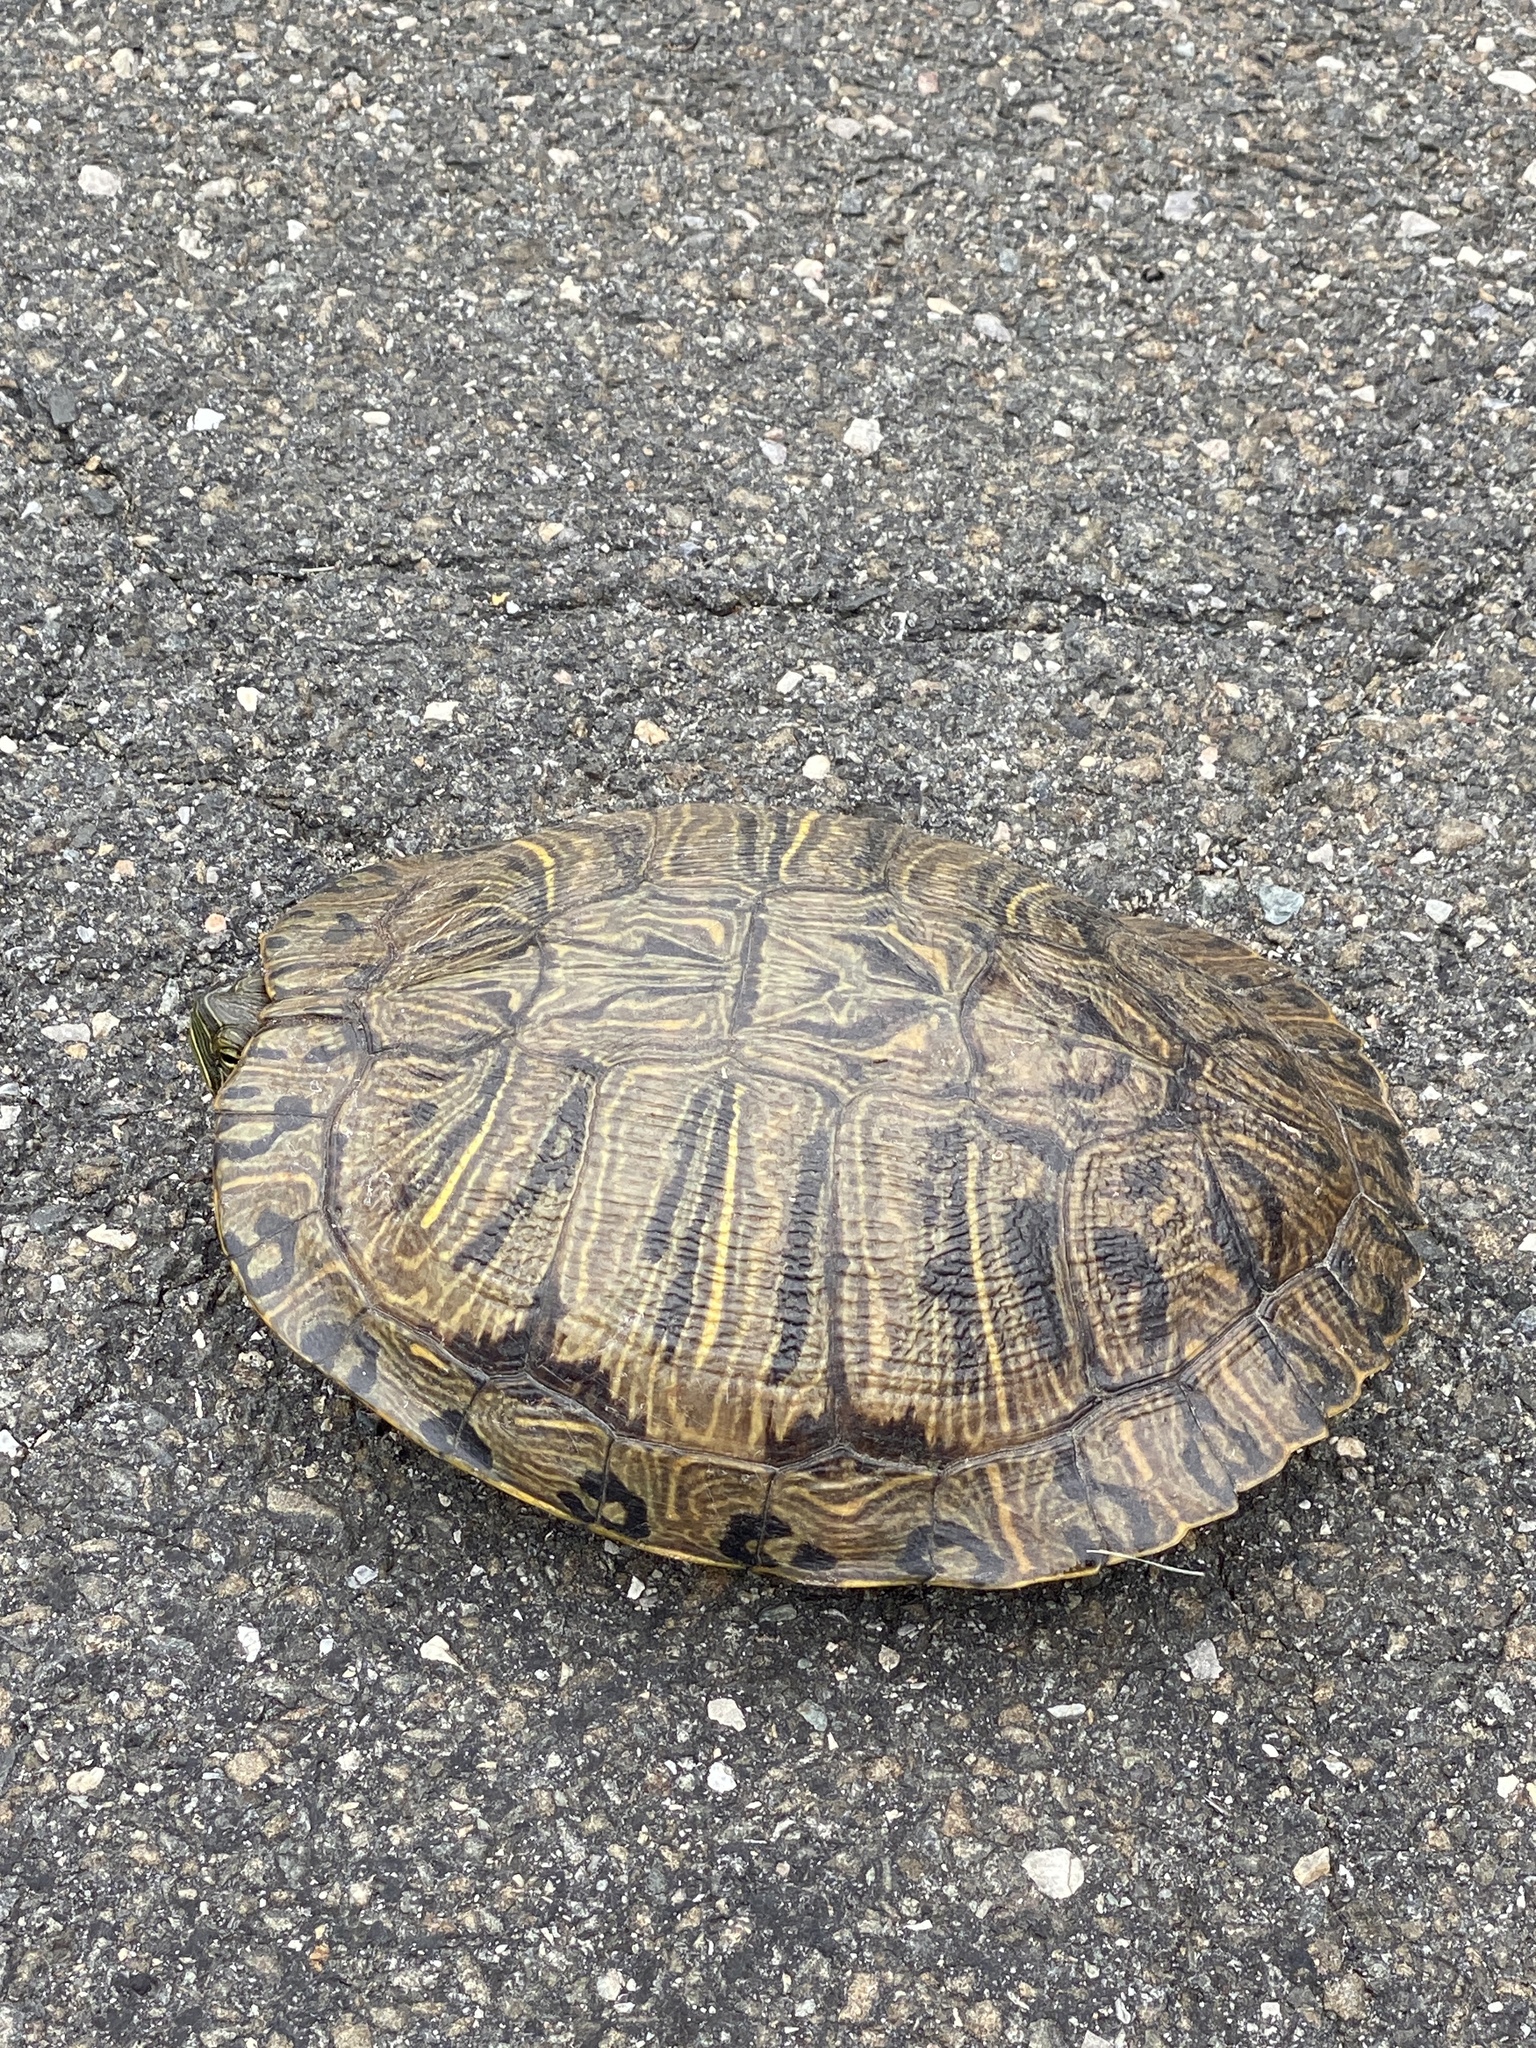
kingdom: Animalia
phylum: Chordata
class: Testudines
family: Emydidae
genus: Trachemys
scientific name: Trachemys scripta
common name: Slider
